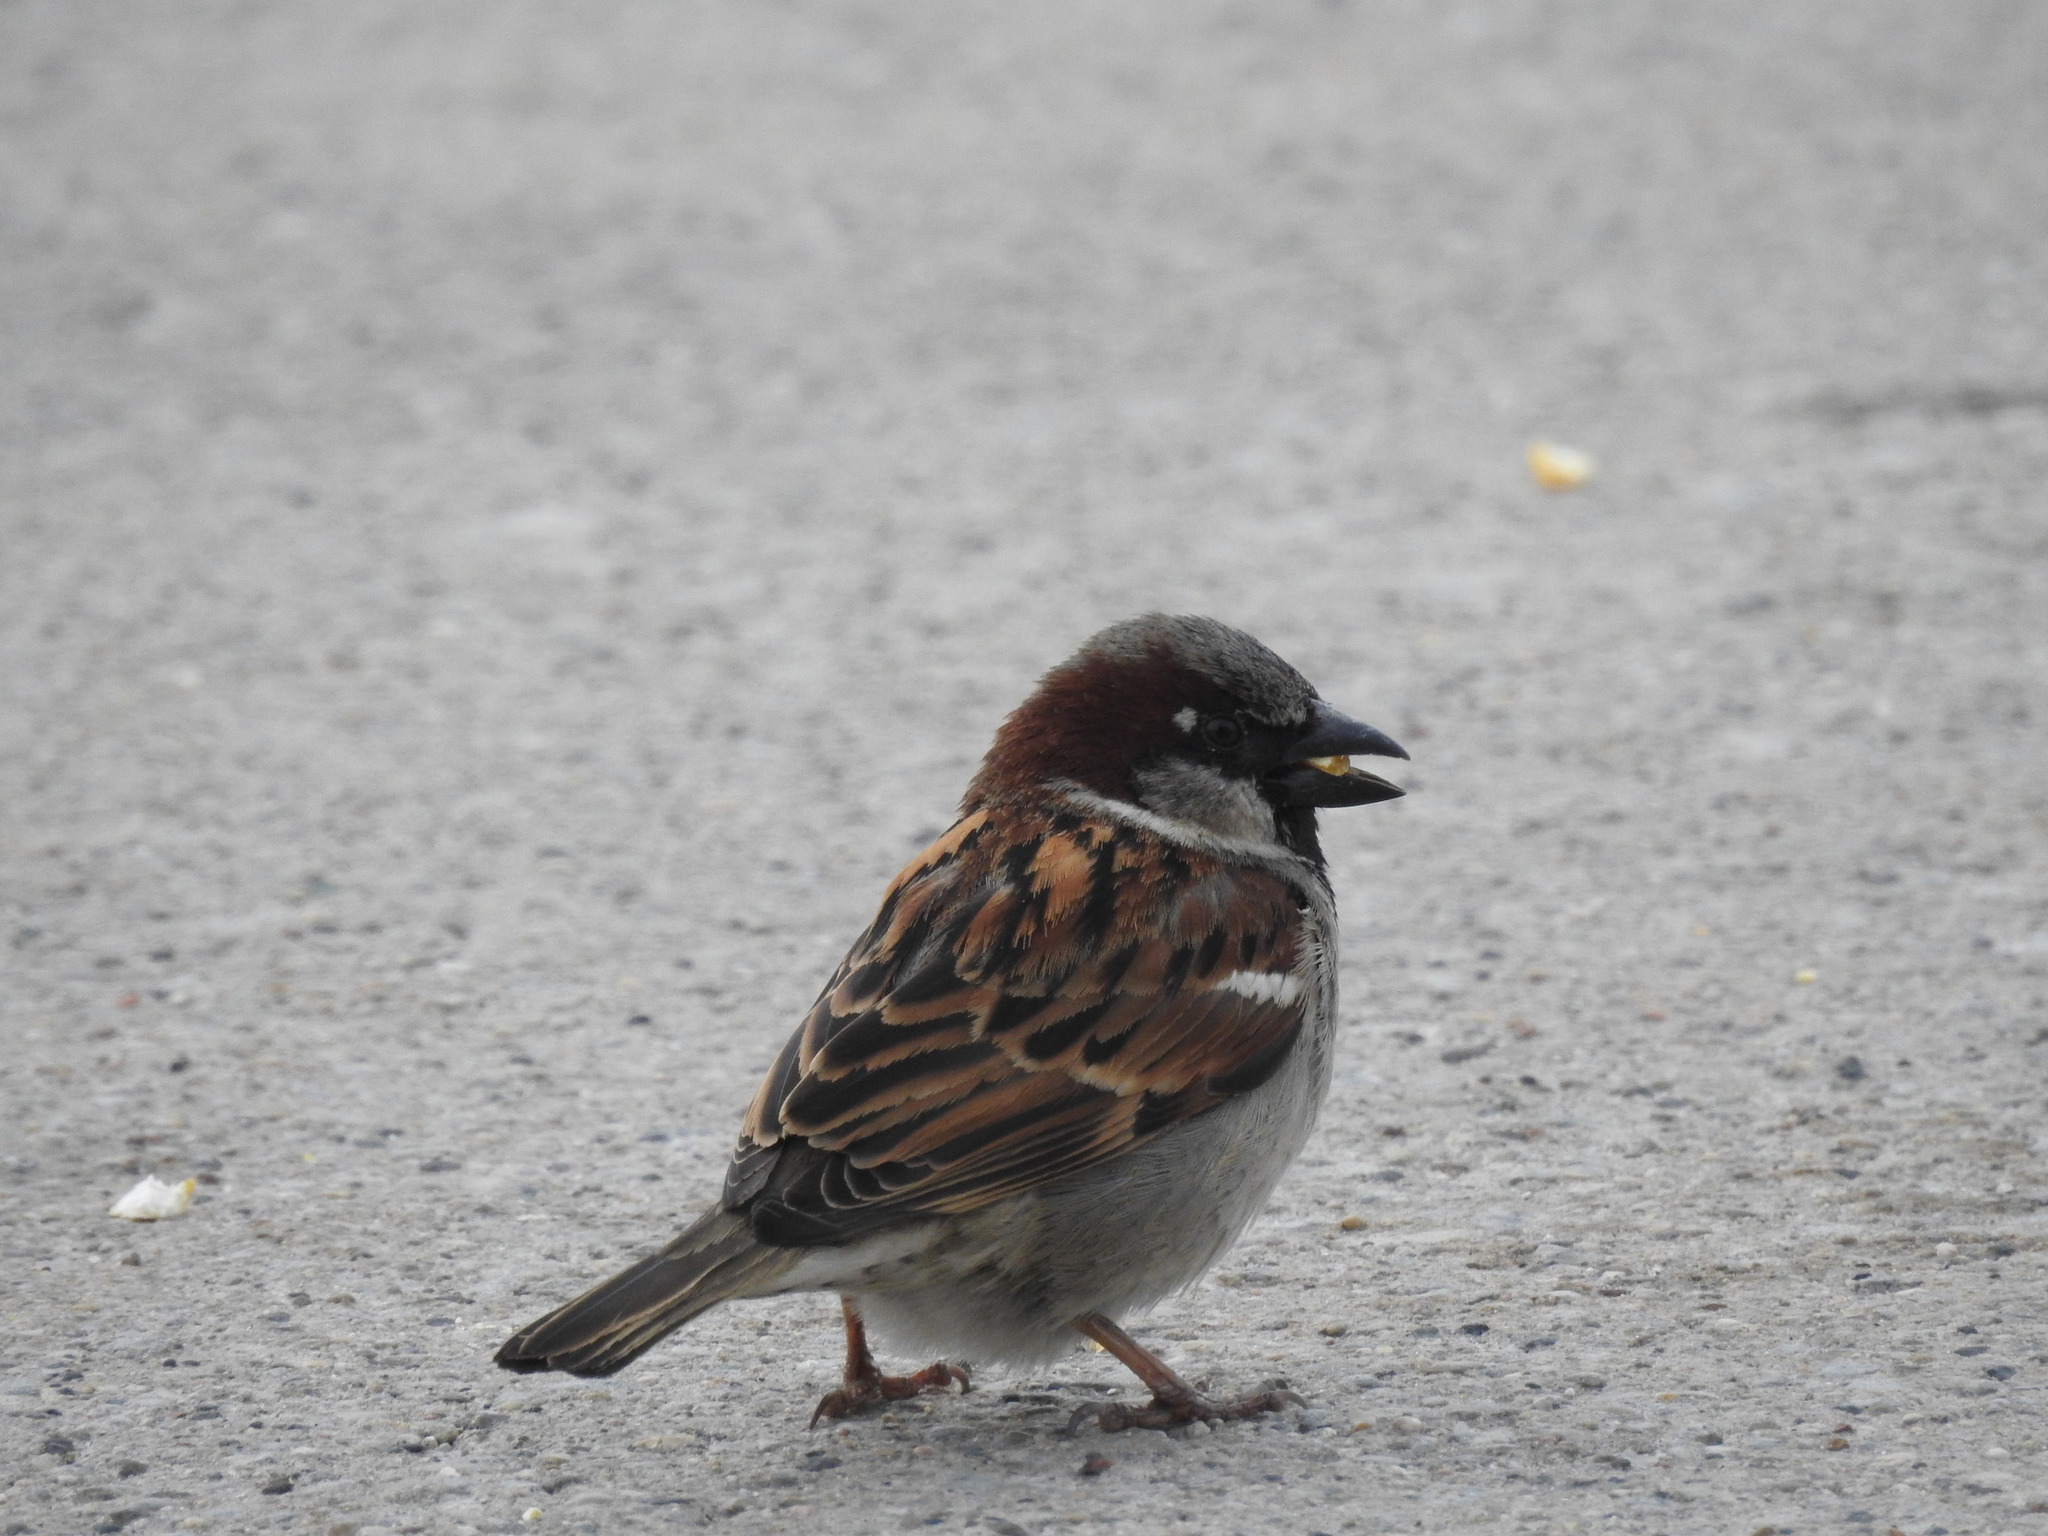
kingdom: Animalia
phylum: Chordata
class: Aves
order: Passeriformes
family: Passeridae
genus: Passer
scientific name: Passer domesticus
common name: House sparrow
